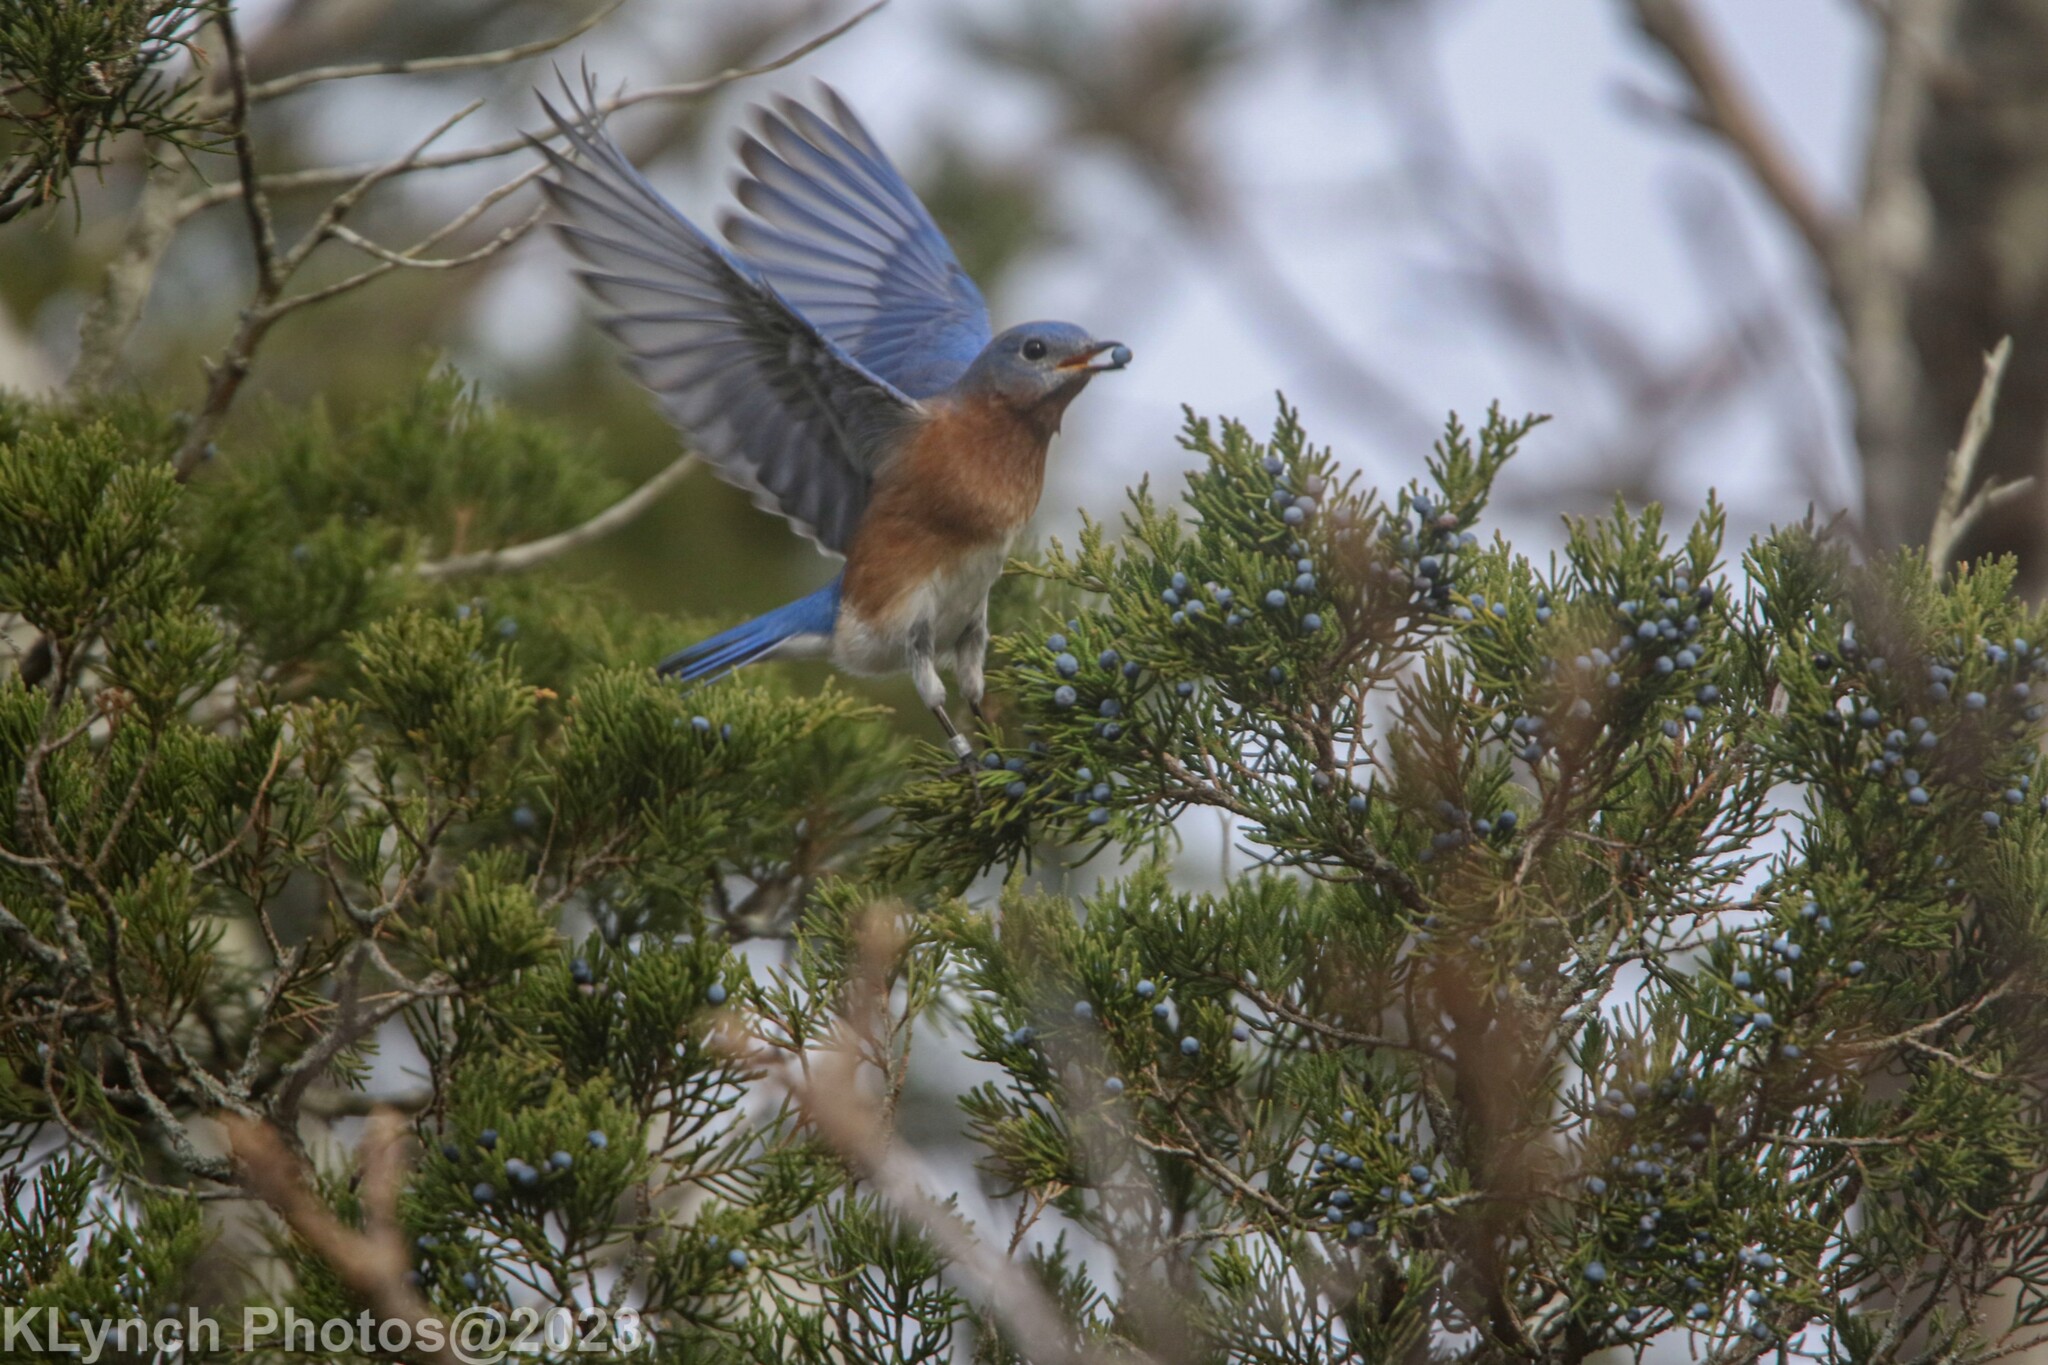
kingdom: Animalia
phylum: Chordata
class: Aves
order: Passeriformes
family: Turdidae
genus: Sialia
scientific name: Sialia sialis
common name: Eastern bluebird
